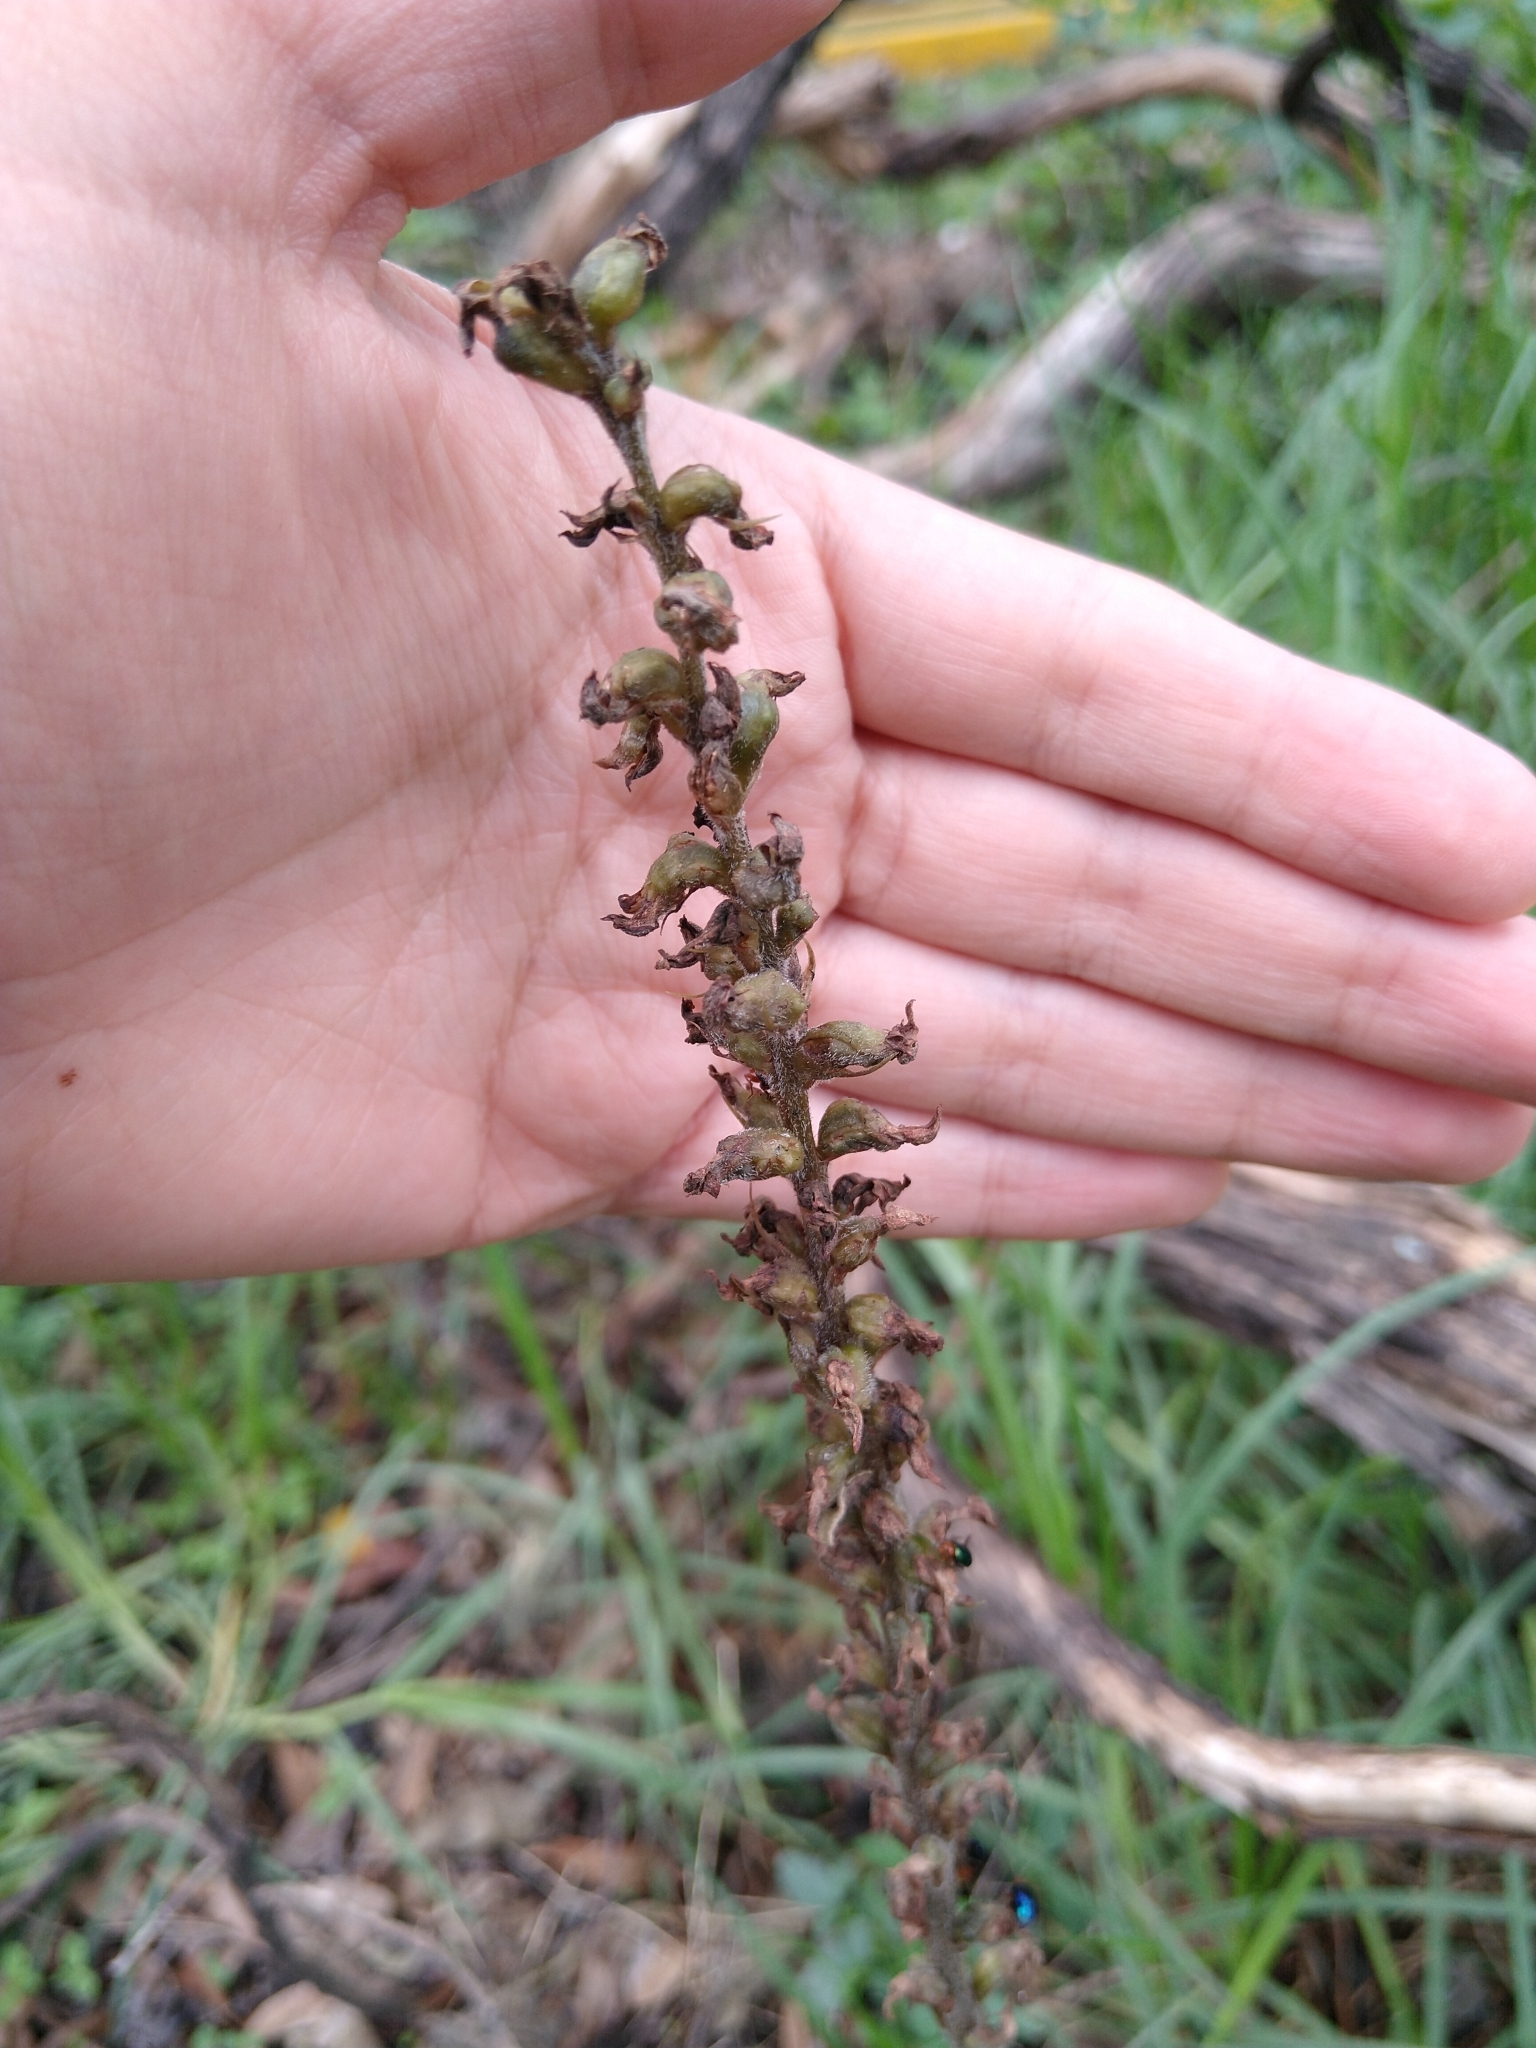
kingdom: Plantae
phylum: Tracheophyta
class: Liliopsida
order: Asparagales
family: Orchidaceae
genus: Sarcoglottis
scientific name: Sarcoglottis schaffneri
